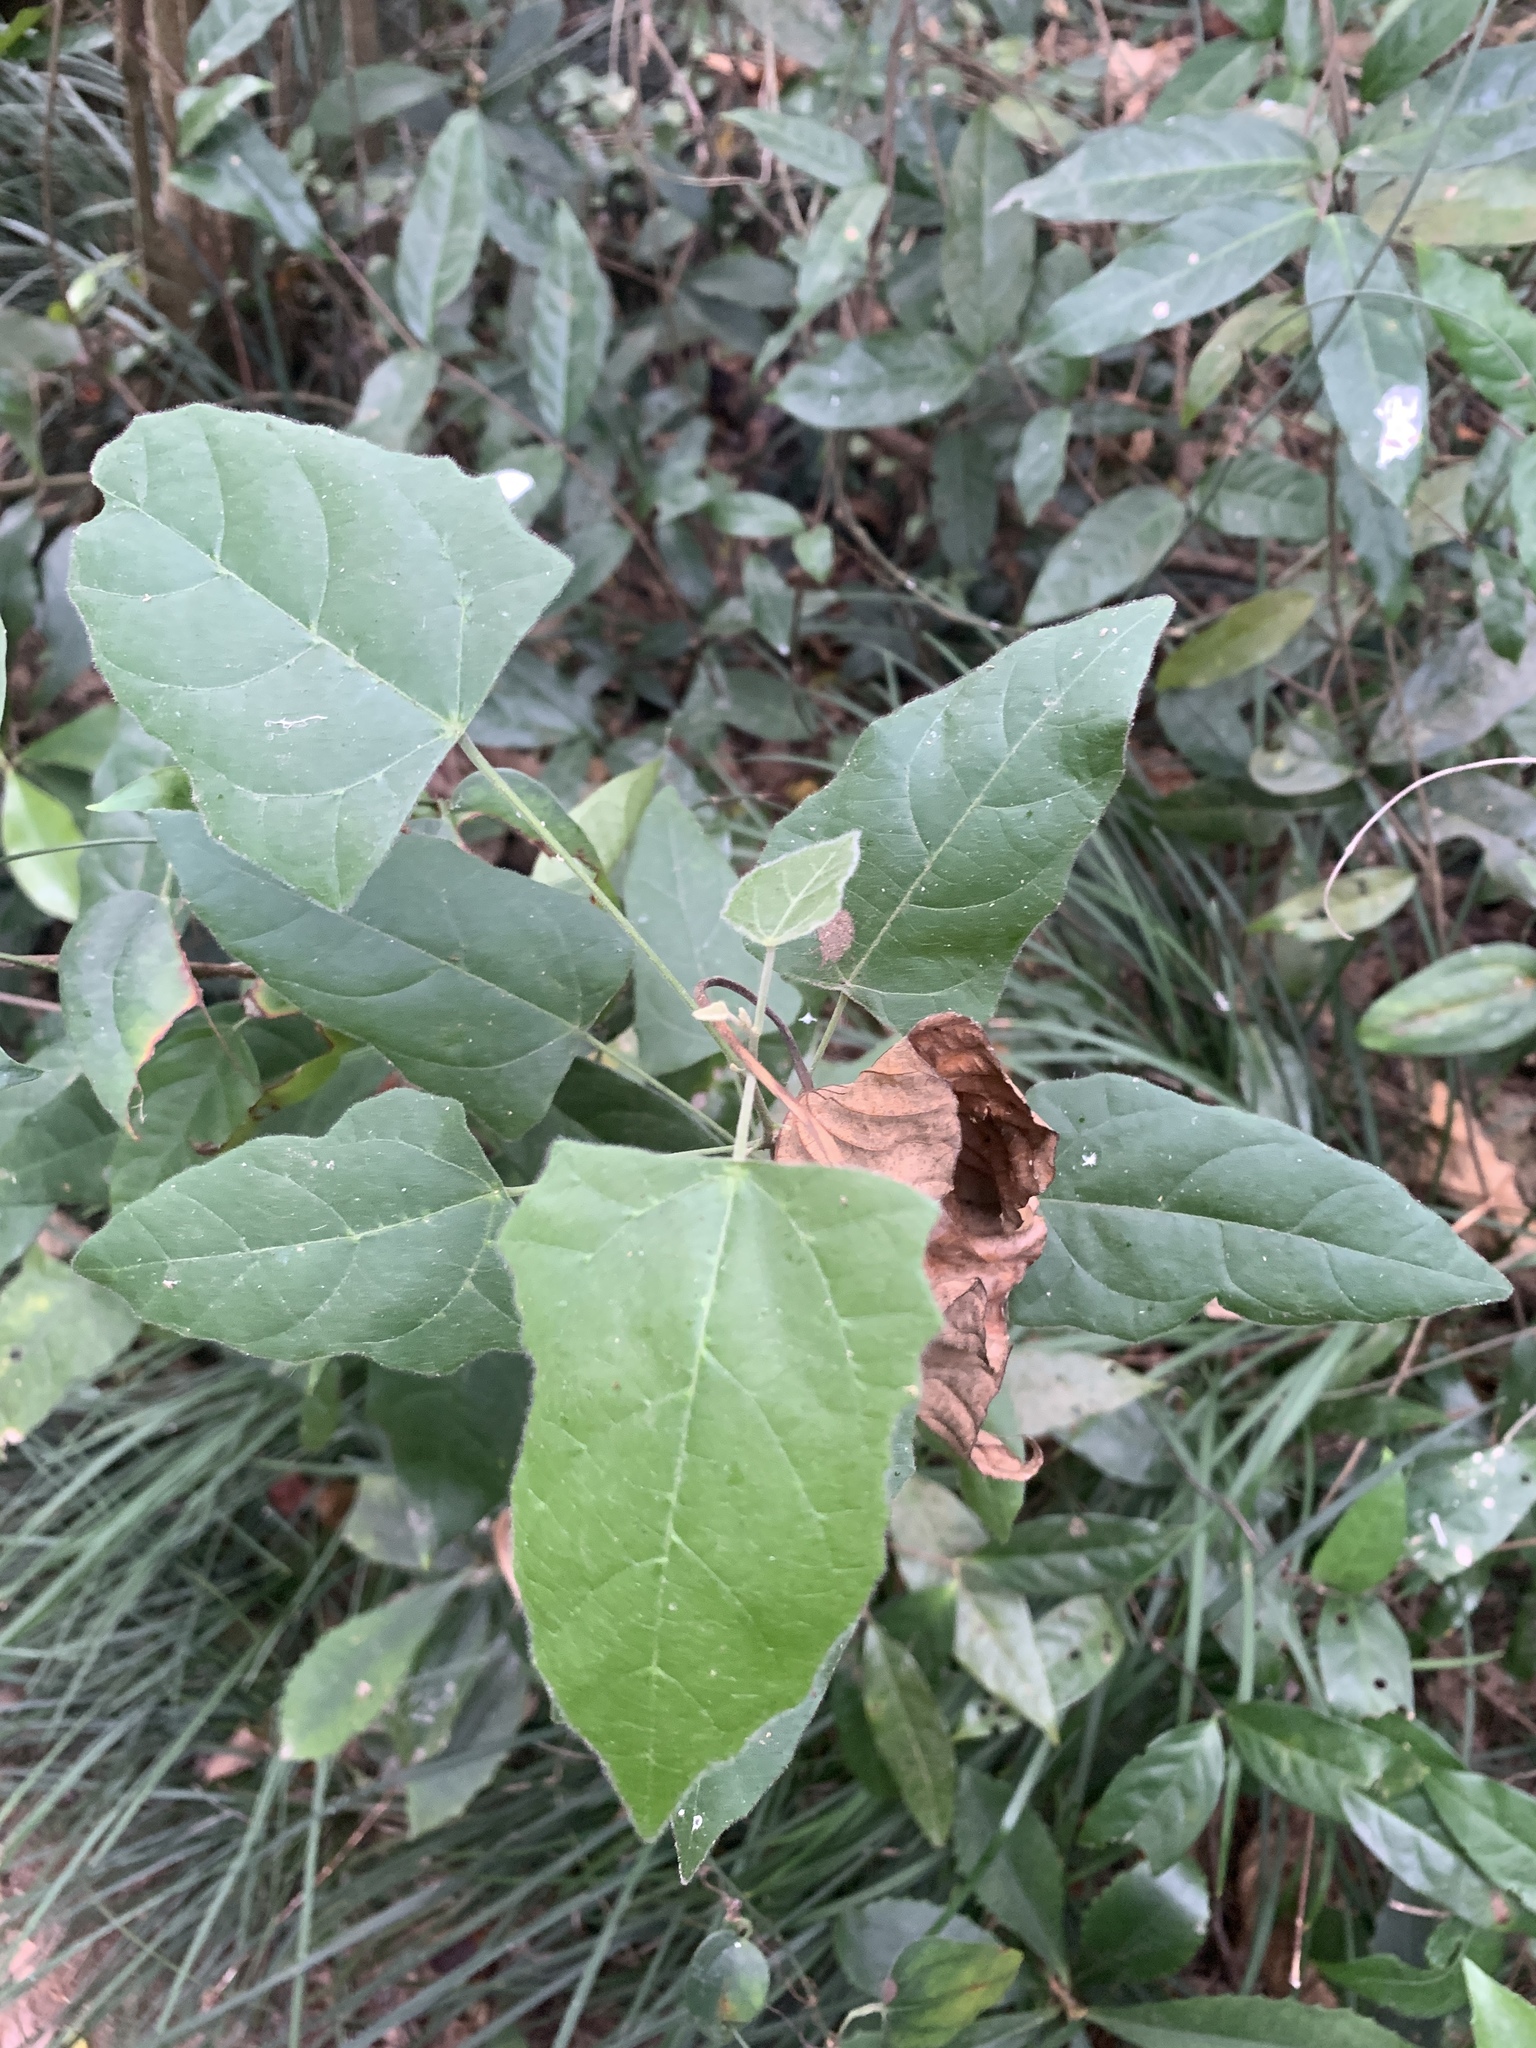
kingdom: Plantae
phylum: Tracheophyta
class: Magnoliopsida
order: Malpighiales
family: Euphorbiaceae
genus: Mallotus
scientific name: Mallotus repandus
